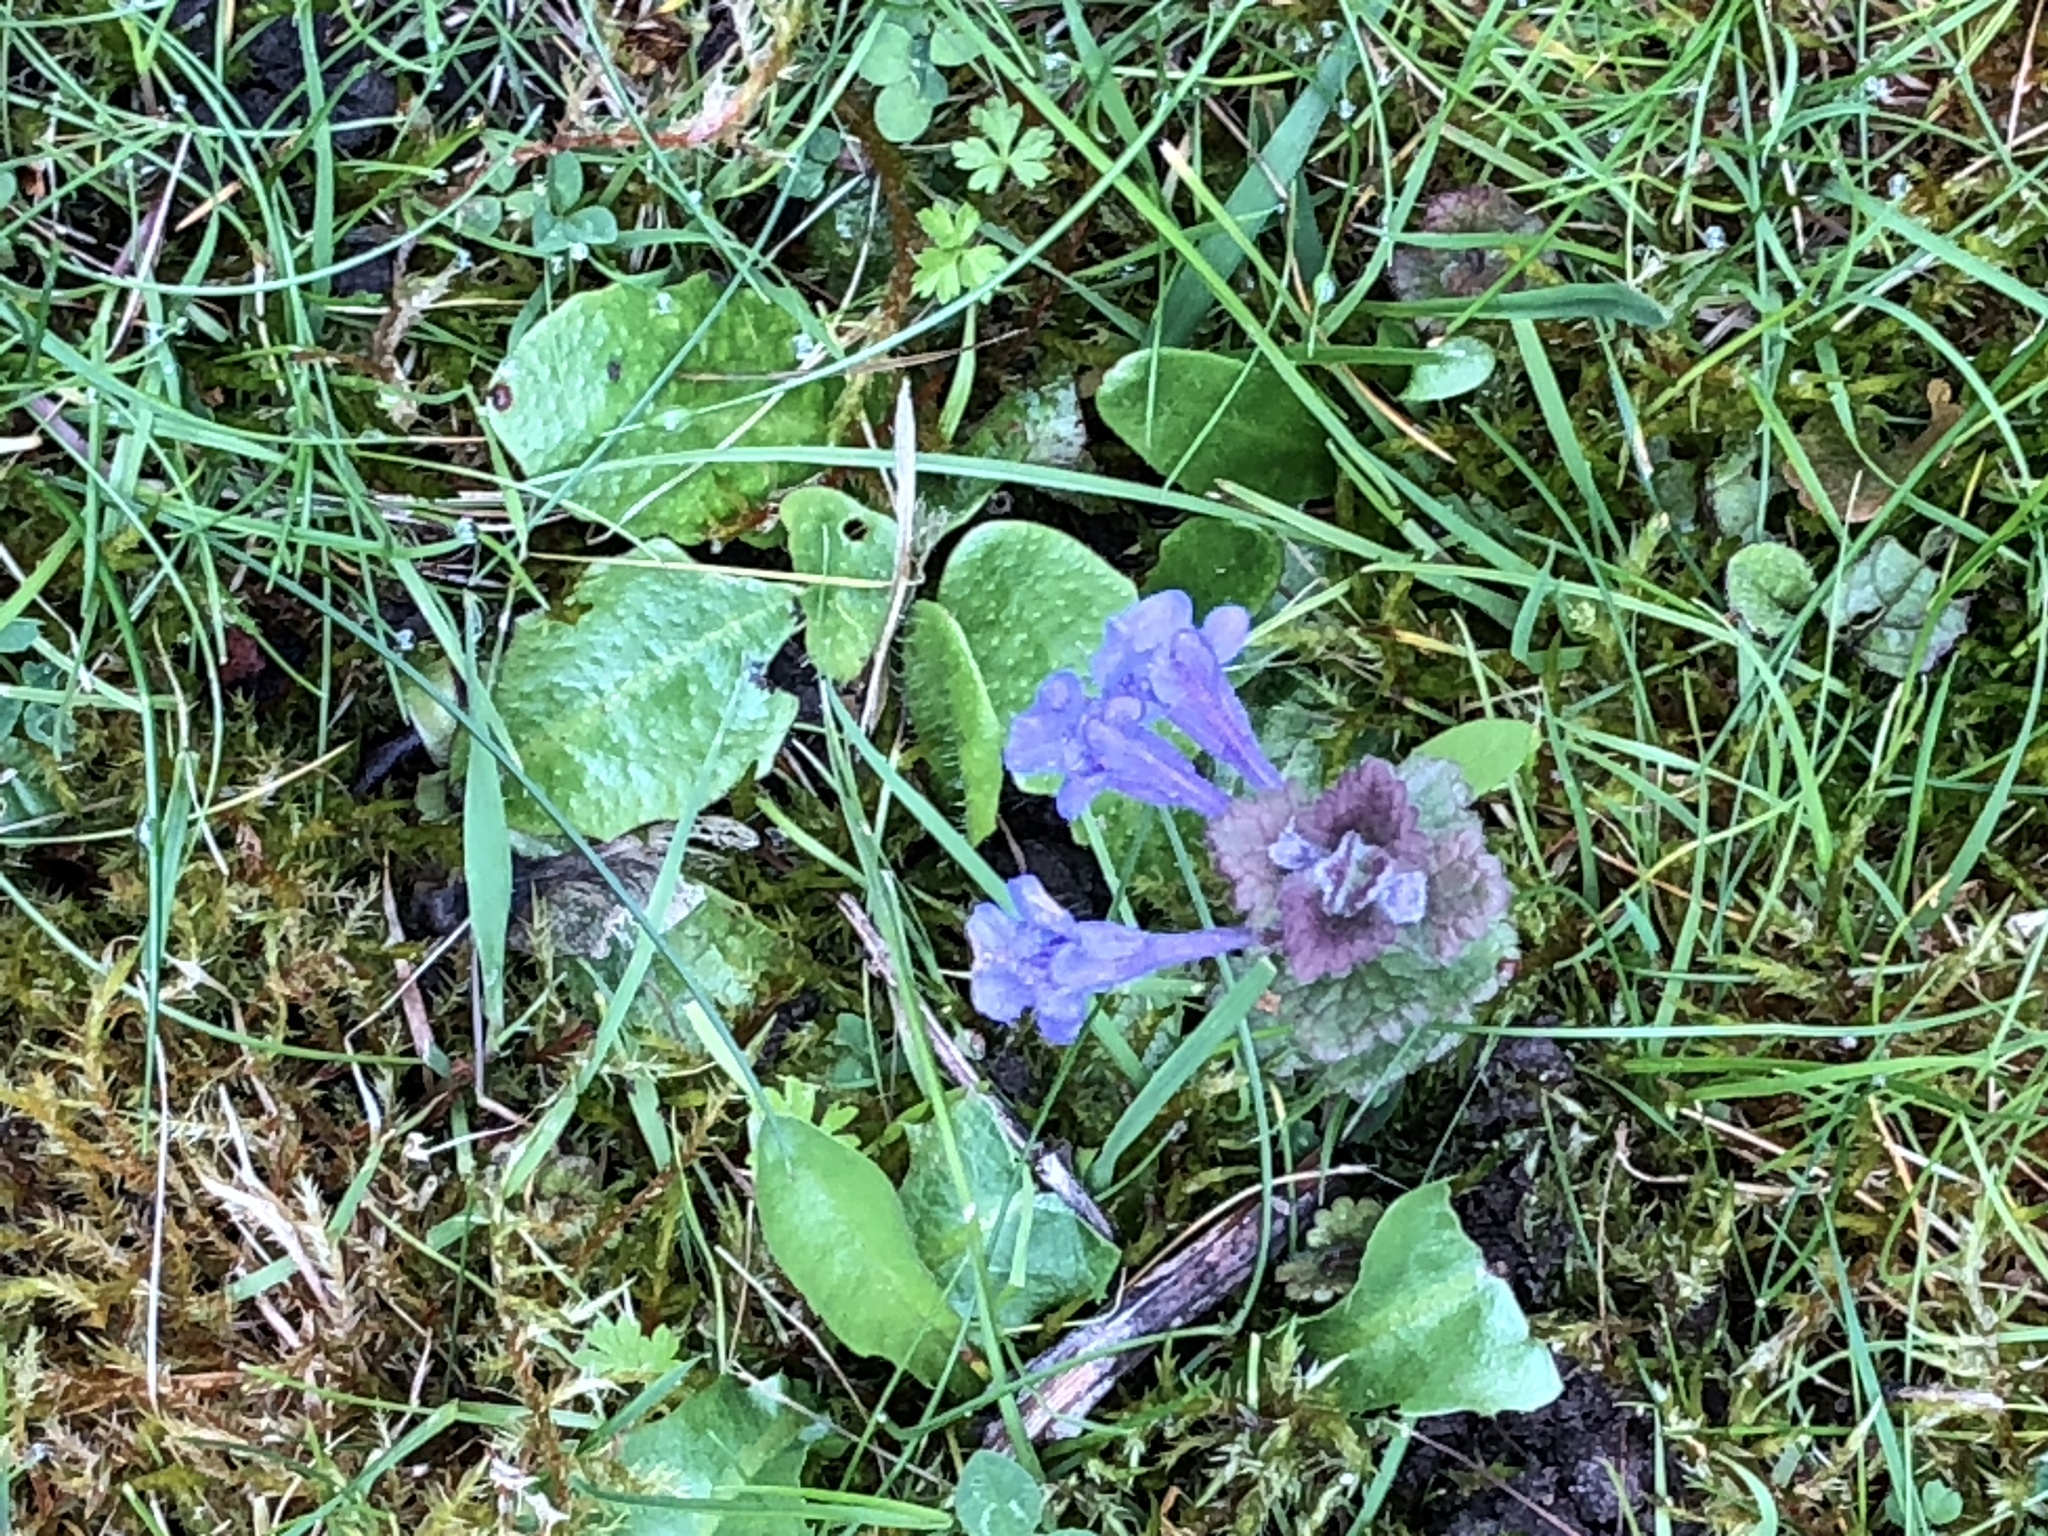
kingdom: Plantae
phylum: Tracheophyta
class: Magnoliopsida
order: Lamiales
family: Lamiaceae
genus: Glechoma
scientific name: Glechoma hederacea
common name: Ground ivy
